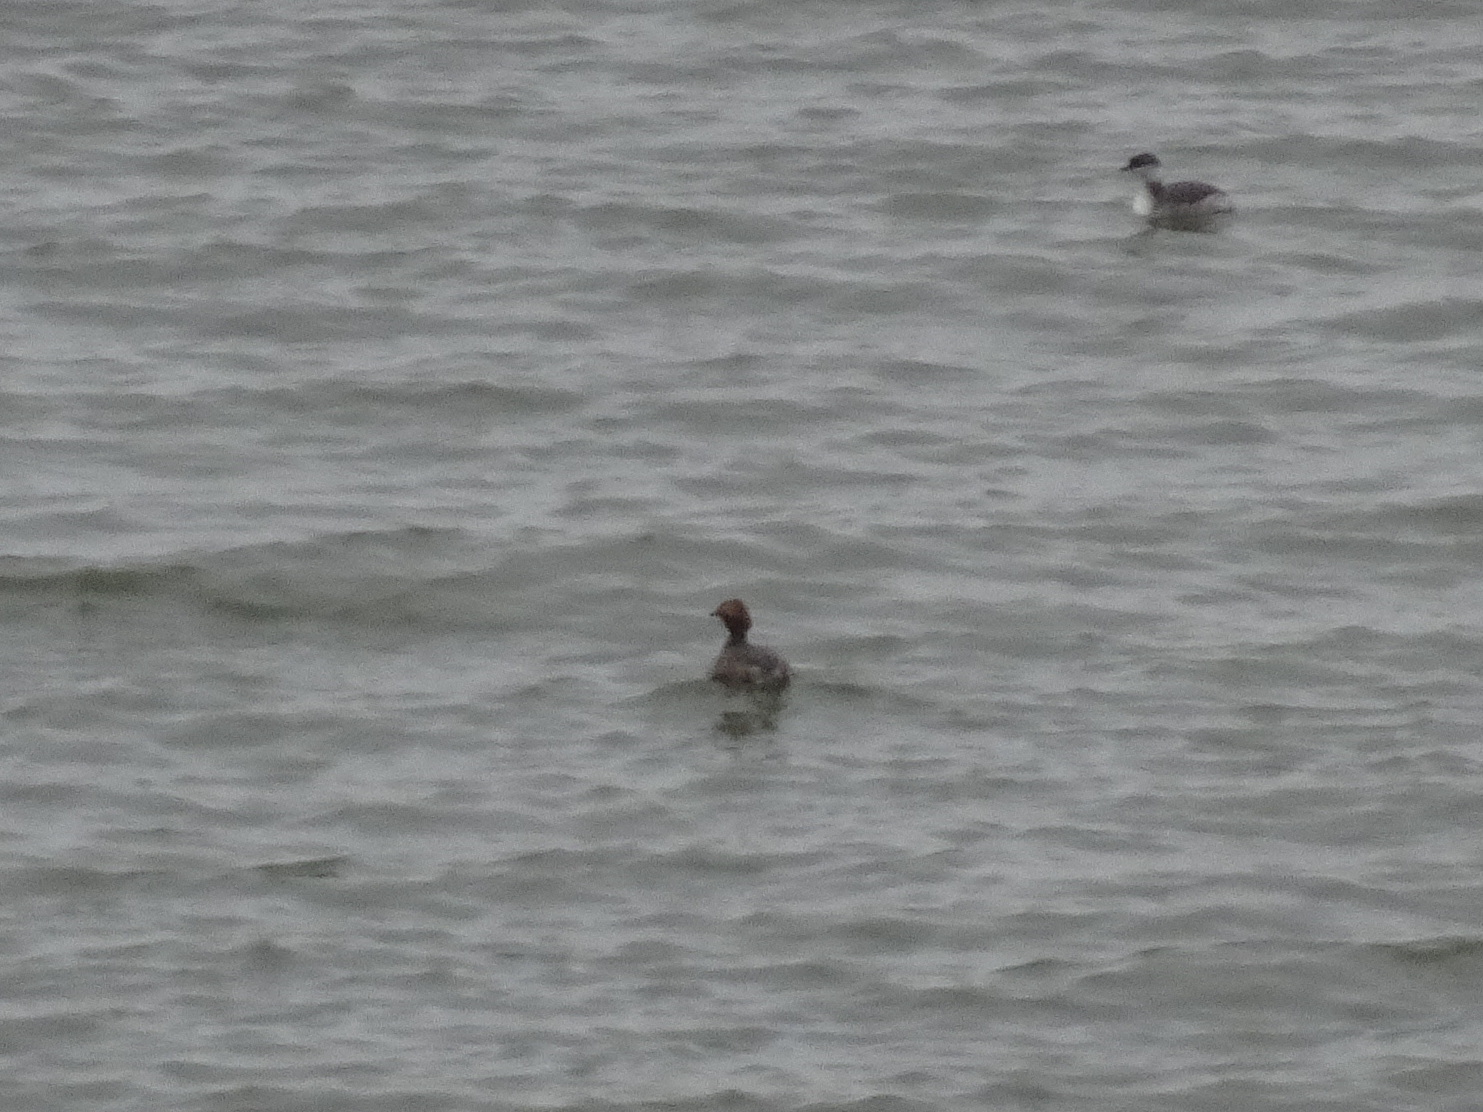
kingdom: Animalia
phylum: Chordata
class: Aves
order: Podicipediformes
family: Podicipedidae
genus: Podiceps
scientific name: Podiceps auritus
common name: Horned grebe
